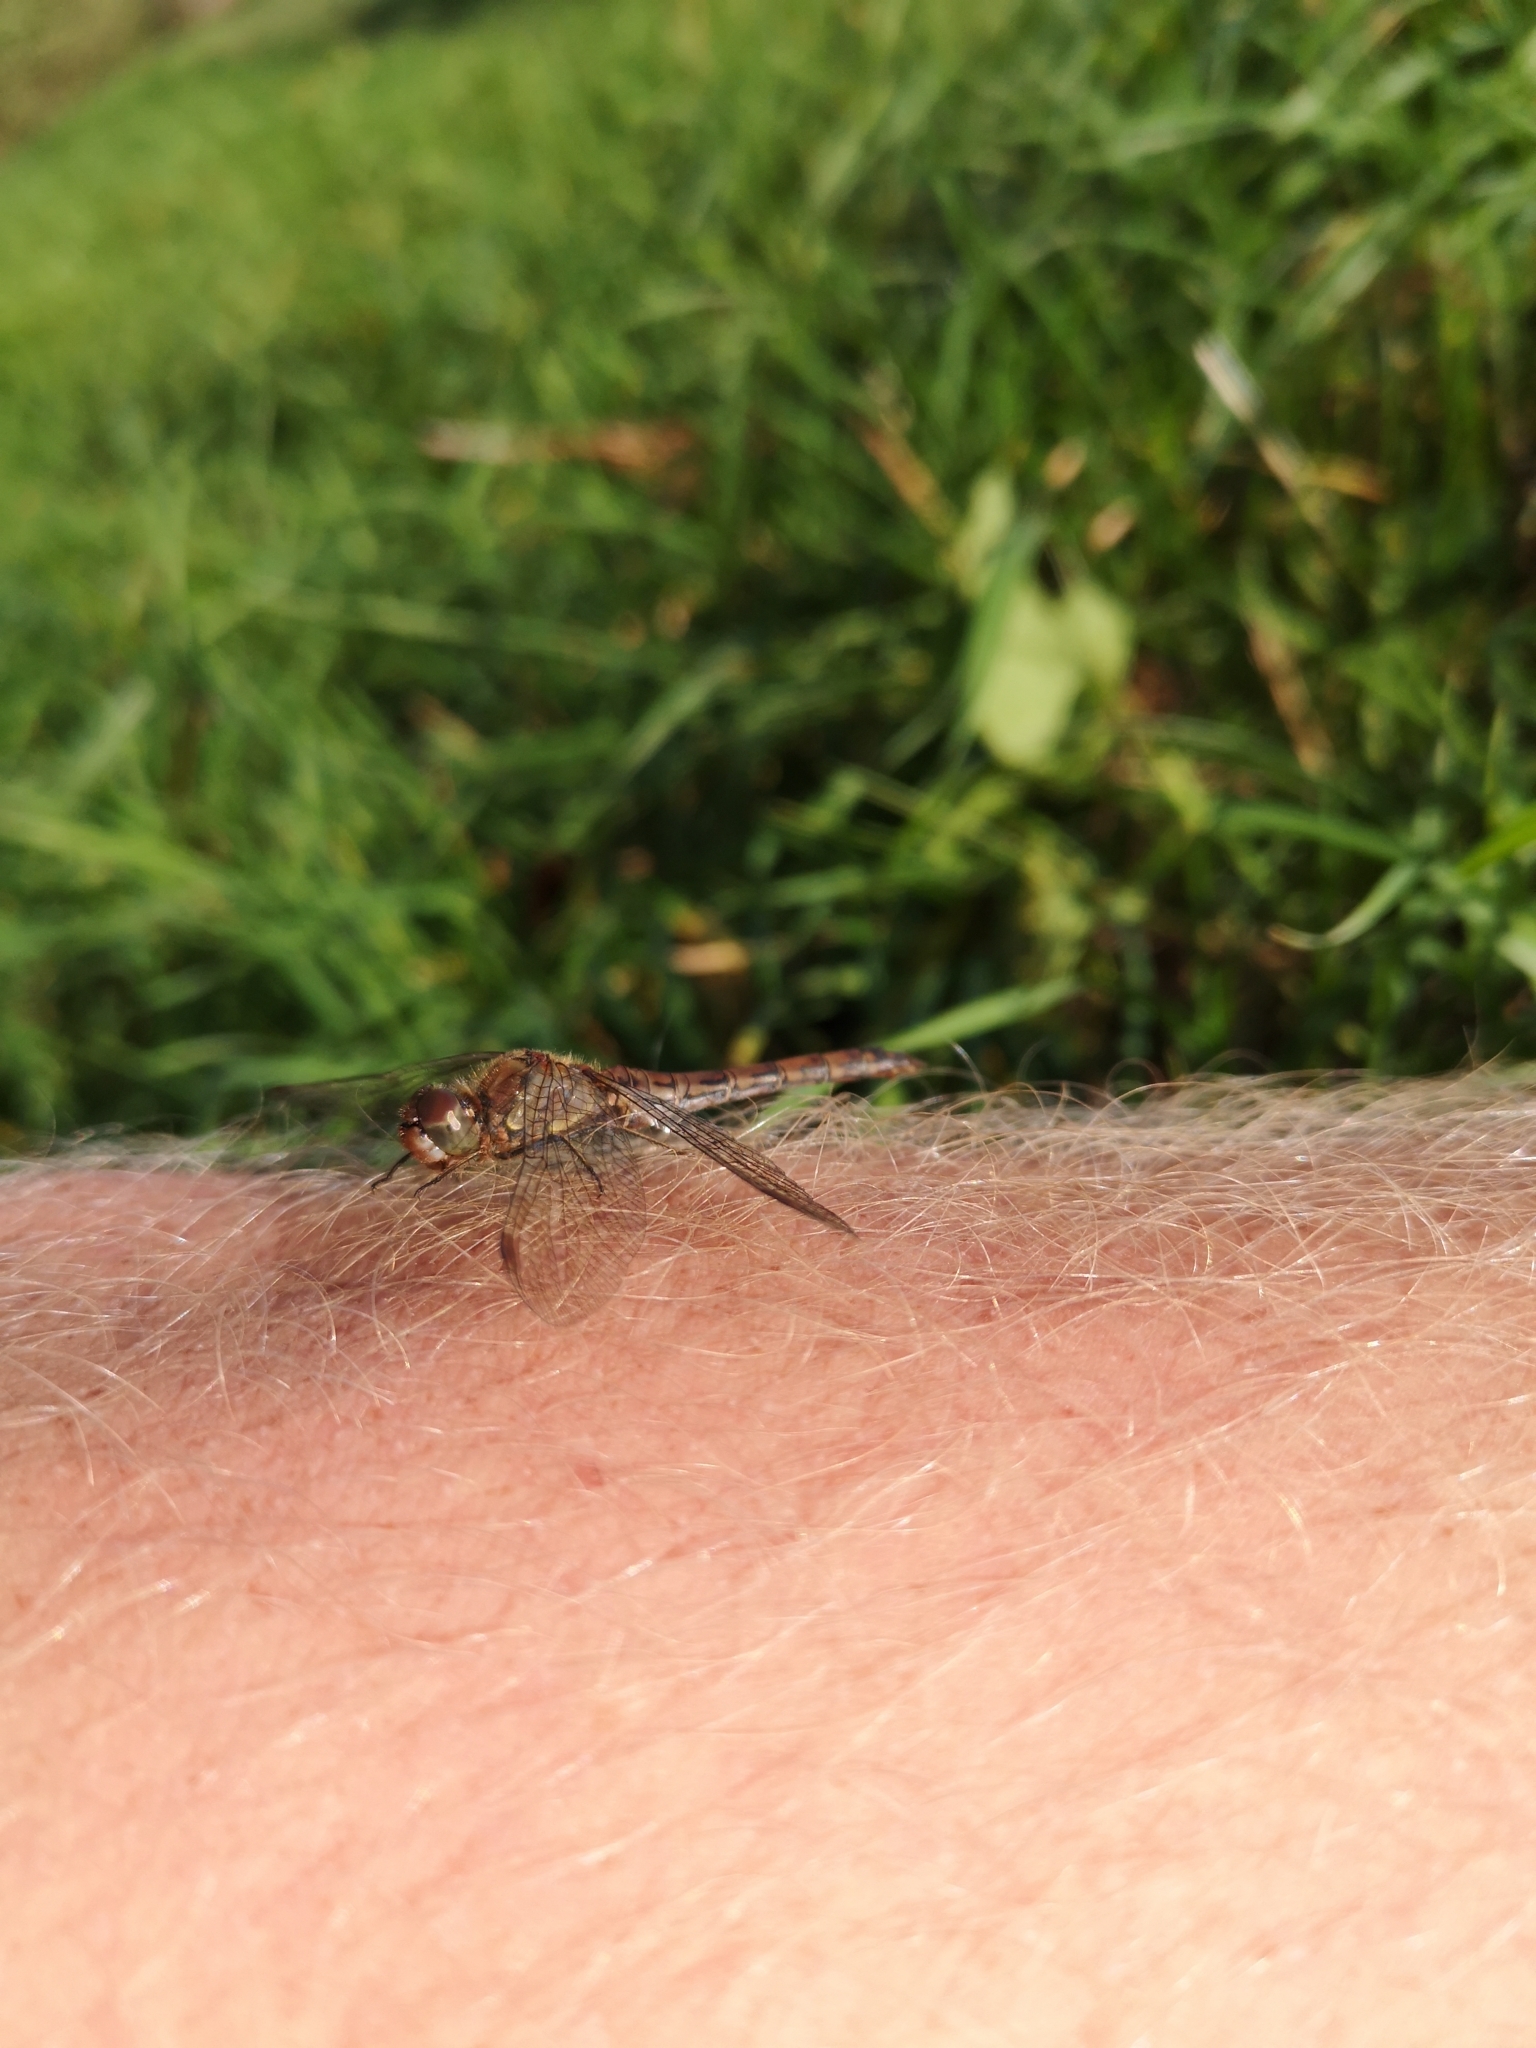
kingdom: Animalia
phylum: Arthropoda
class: Insecta
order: Odonata
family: Libellulidae
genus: Sympetrum
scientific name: Sympetrum striolatum
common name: Common darter
